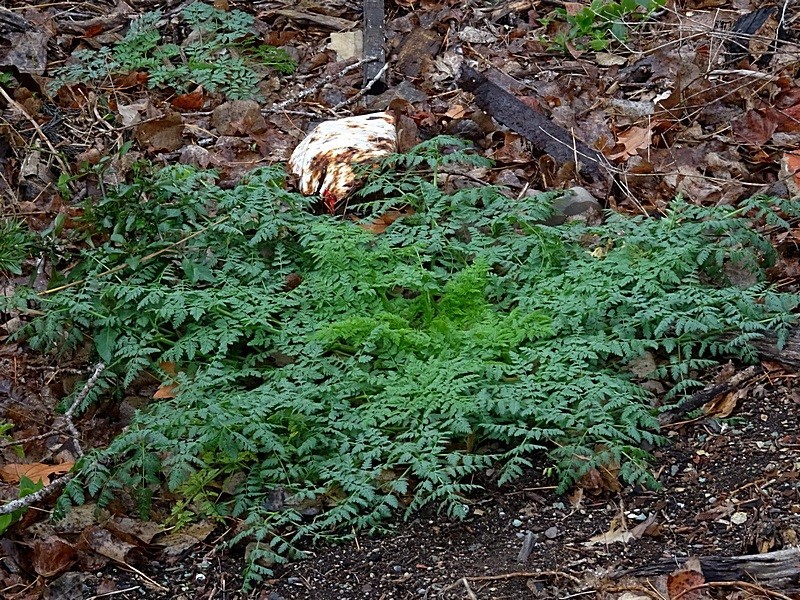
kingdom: Plantae
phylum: Tracheophyta
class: Magnoliopsida
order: Apiales
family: Apiaceae
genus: Conium
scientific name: Conium maculatum
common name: Hemlock
